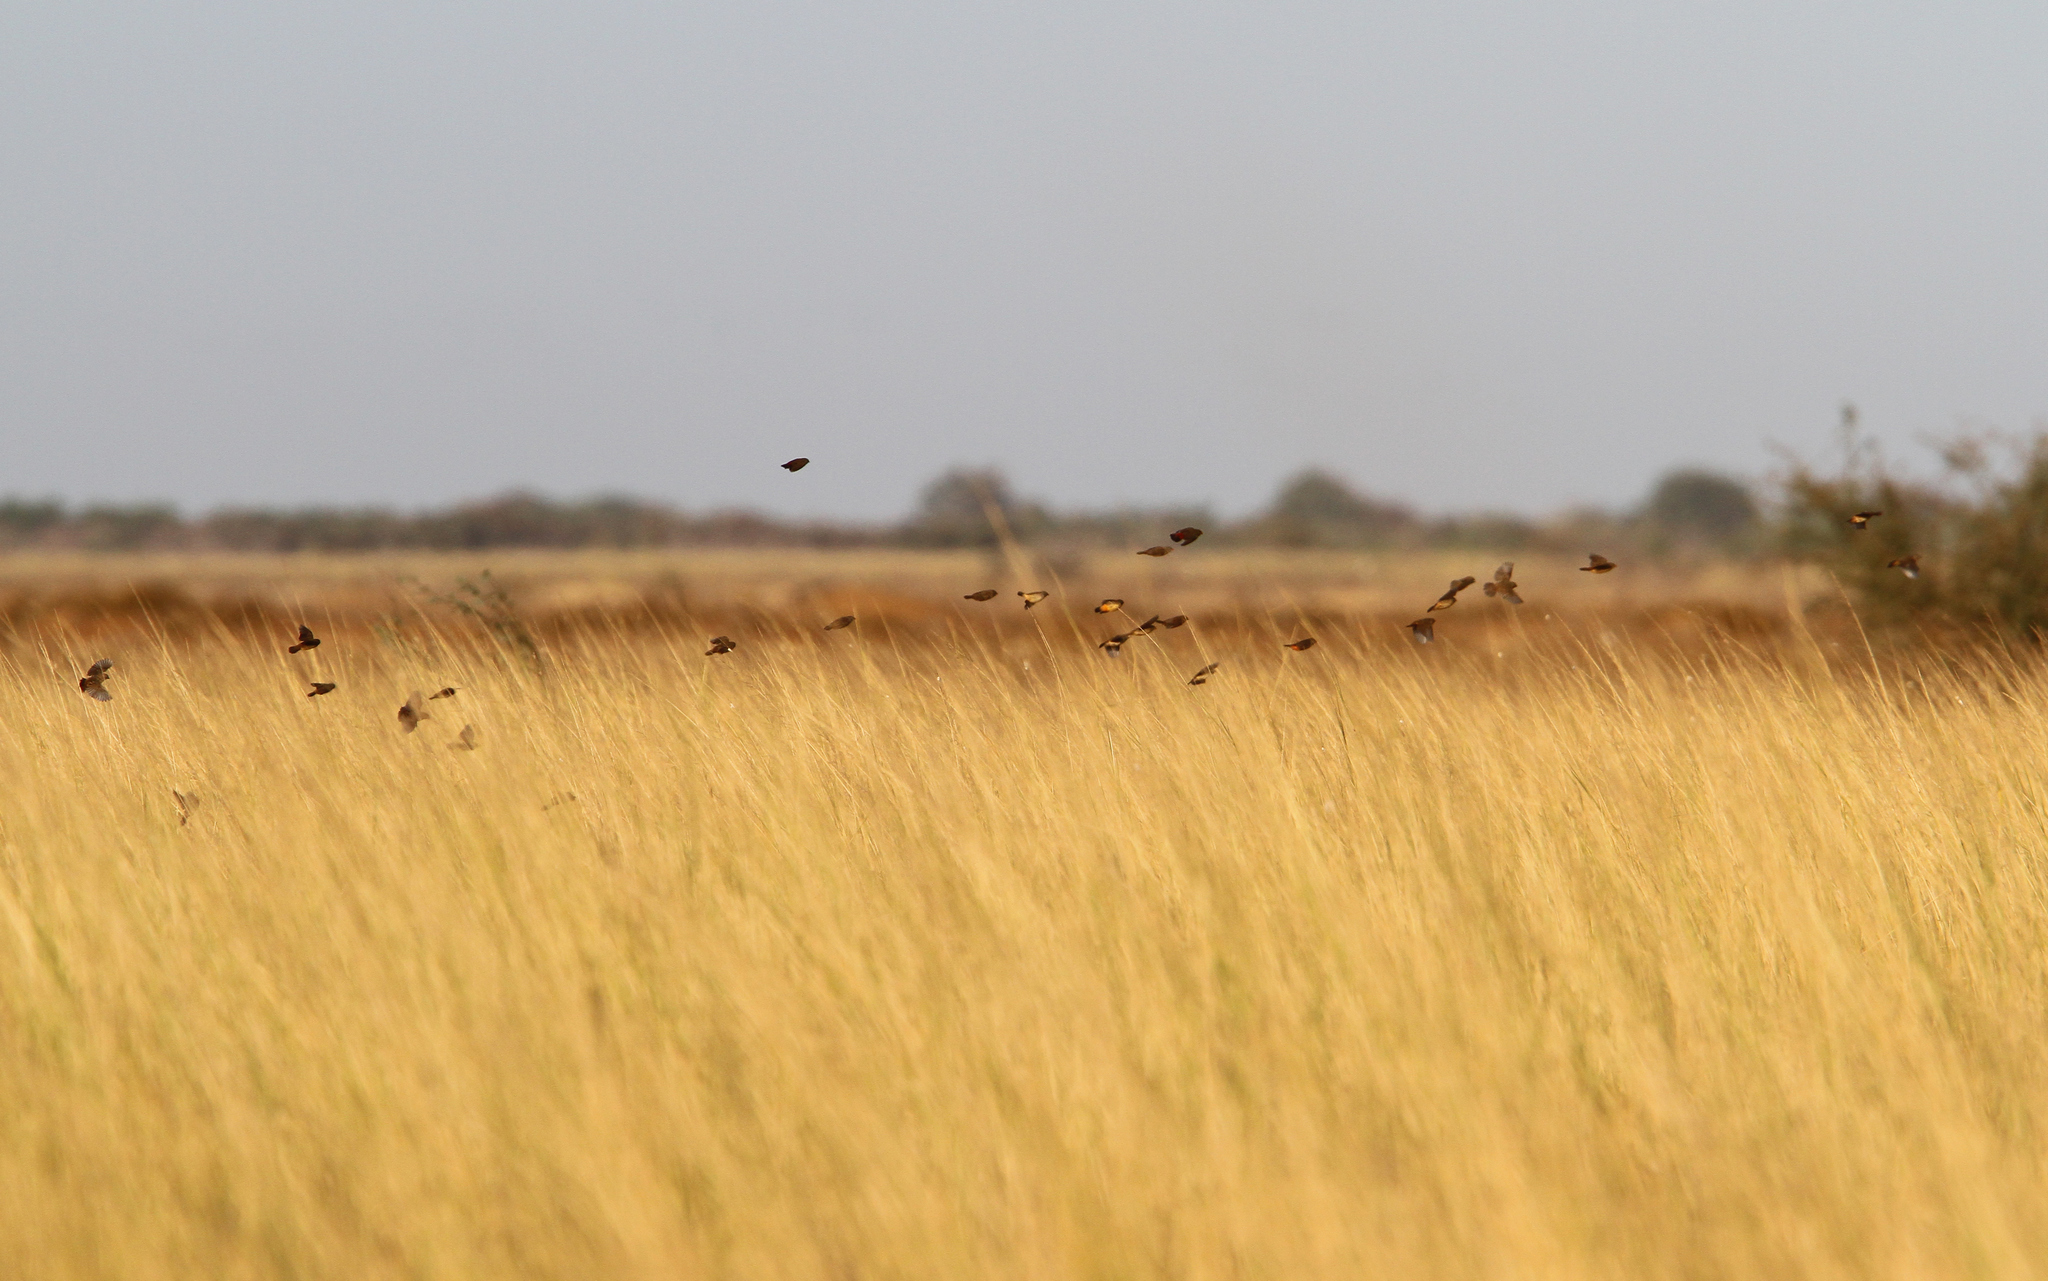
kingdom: Animalia
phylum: Chordata
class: Aves
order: Passeriformes
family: Estrildidae
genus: Amandava
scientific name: Amandava subflava
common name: Orange-breasted waxbill
